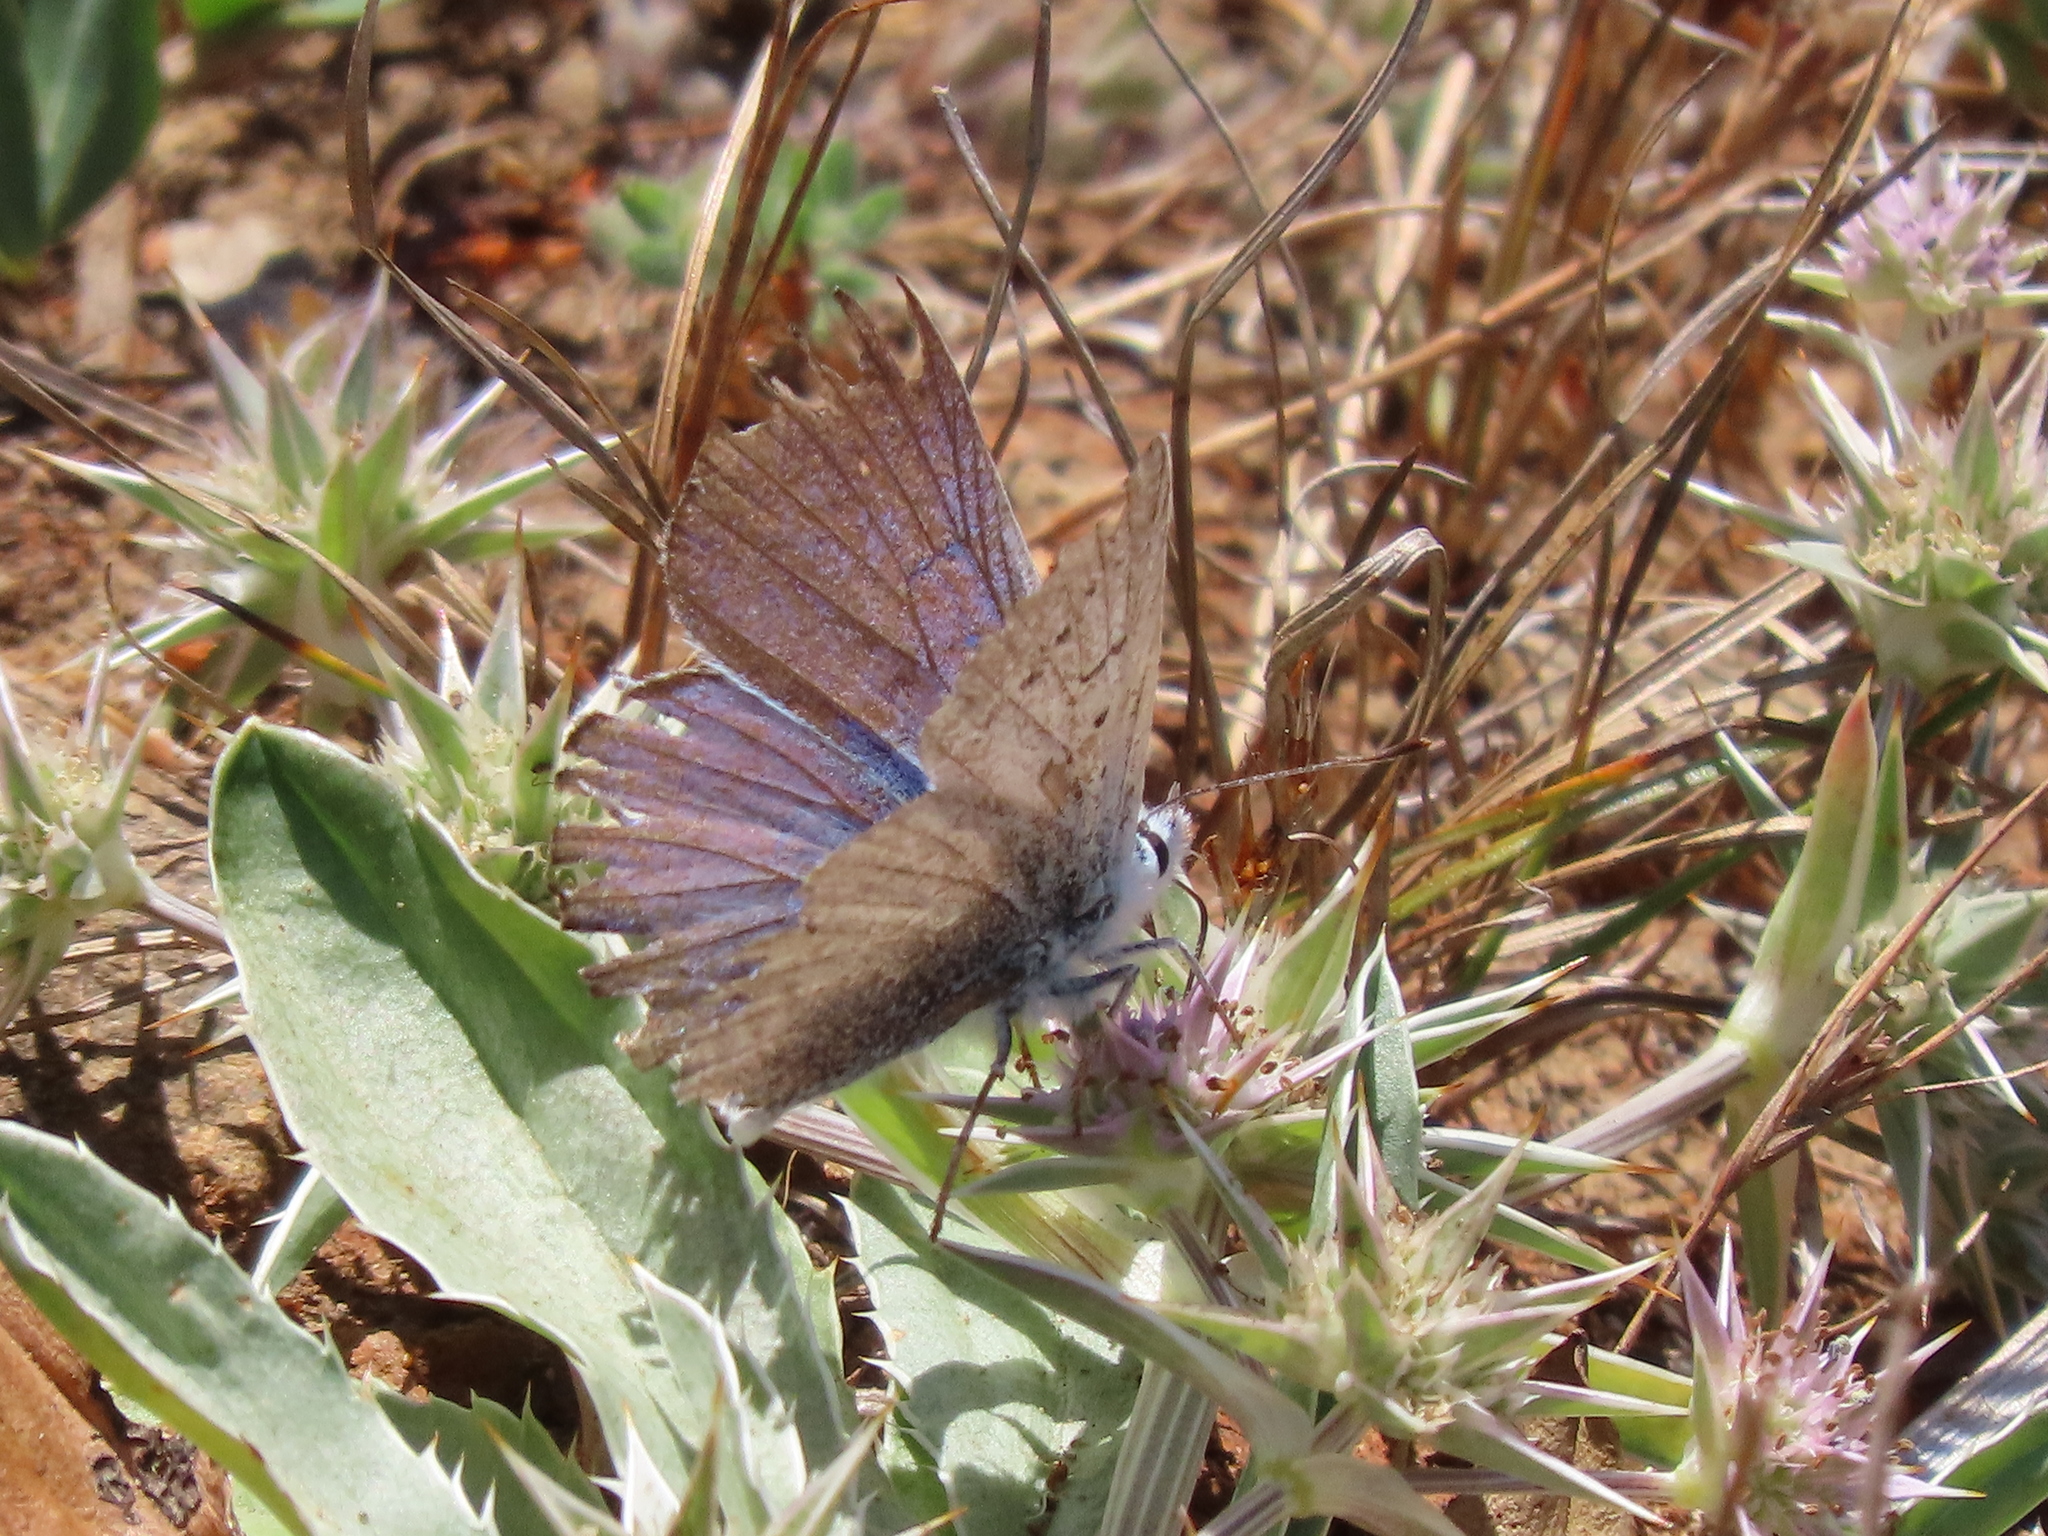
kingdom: Plantae
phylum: Tracheophyta
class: Magnoliopsida
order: Apiales
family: Apiaceae
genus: Eryngium
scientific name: Eryngium armatum
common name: Coyote thistle
